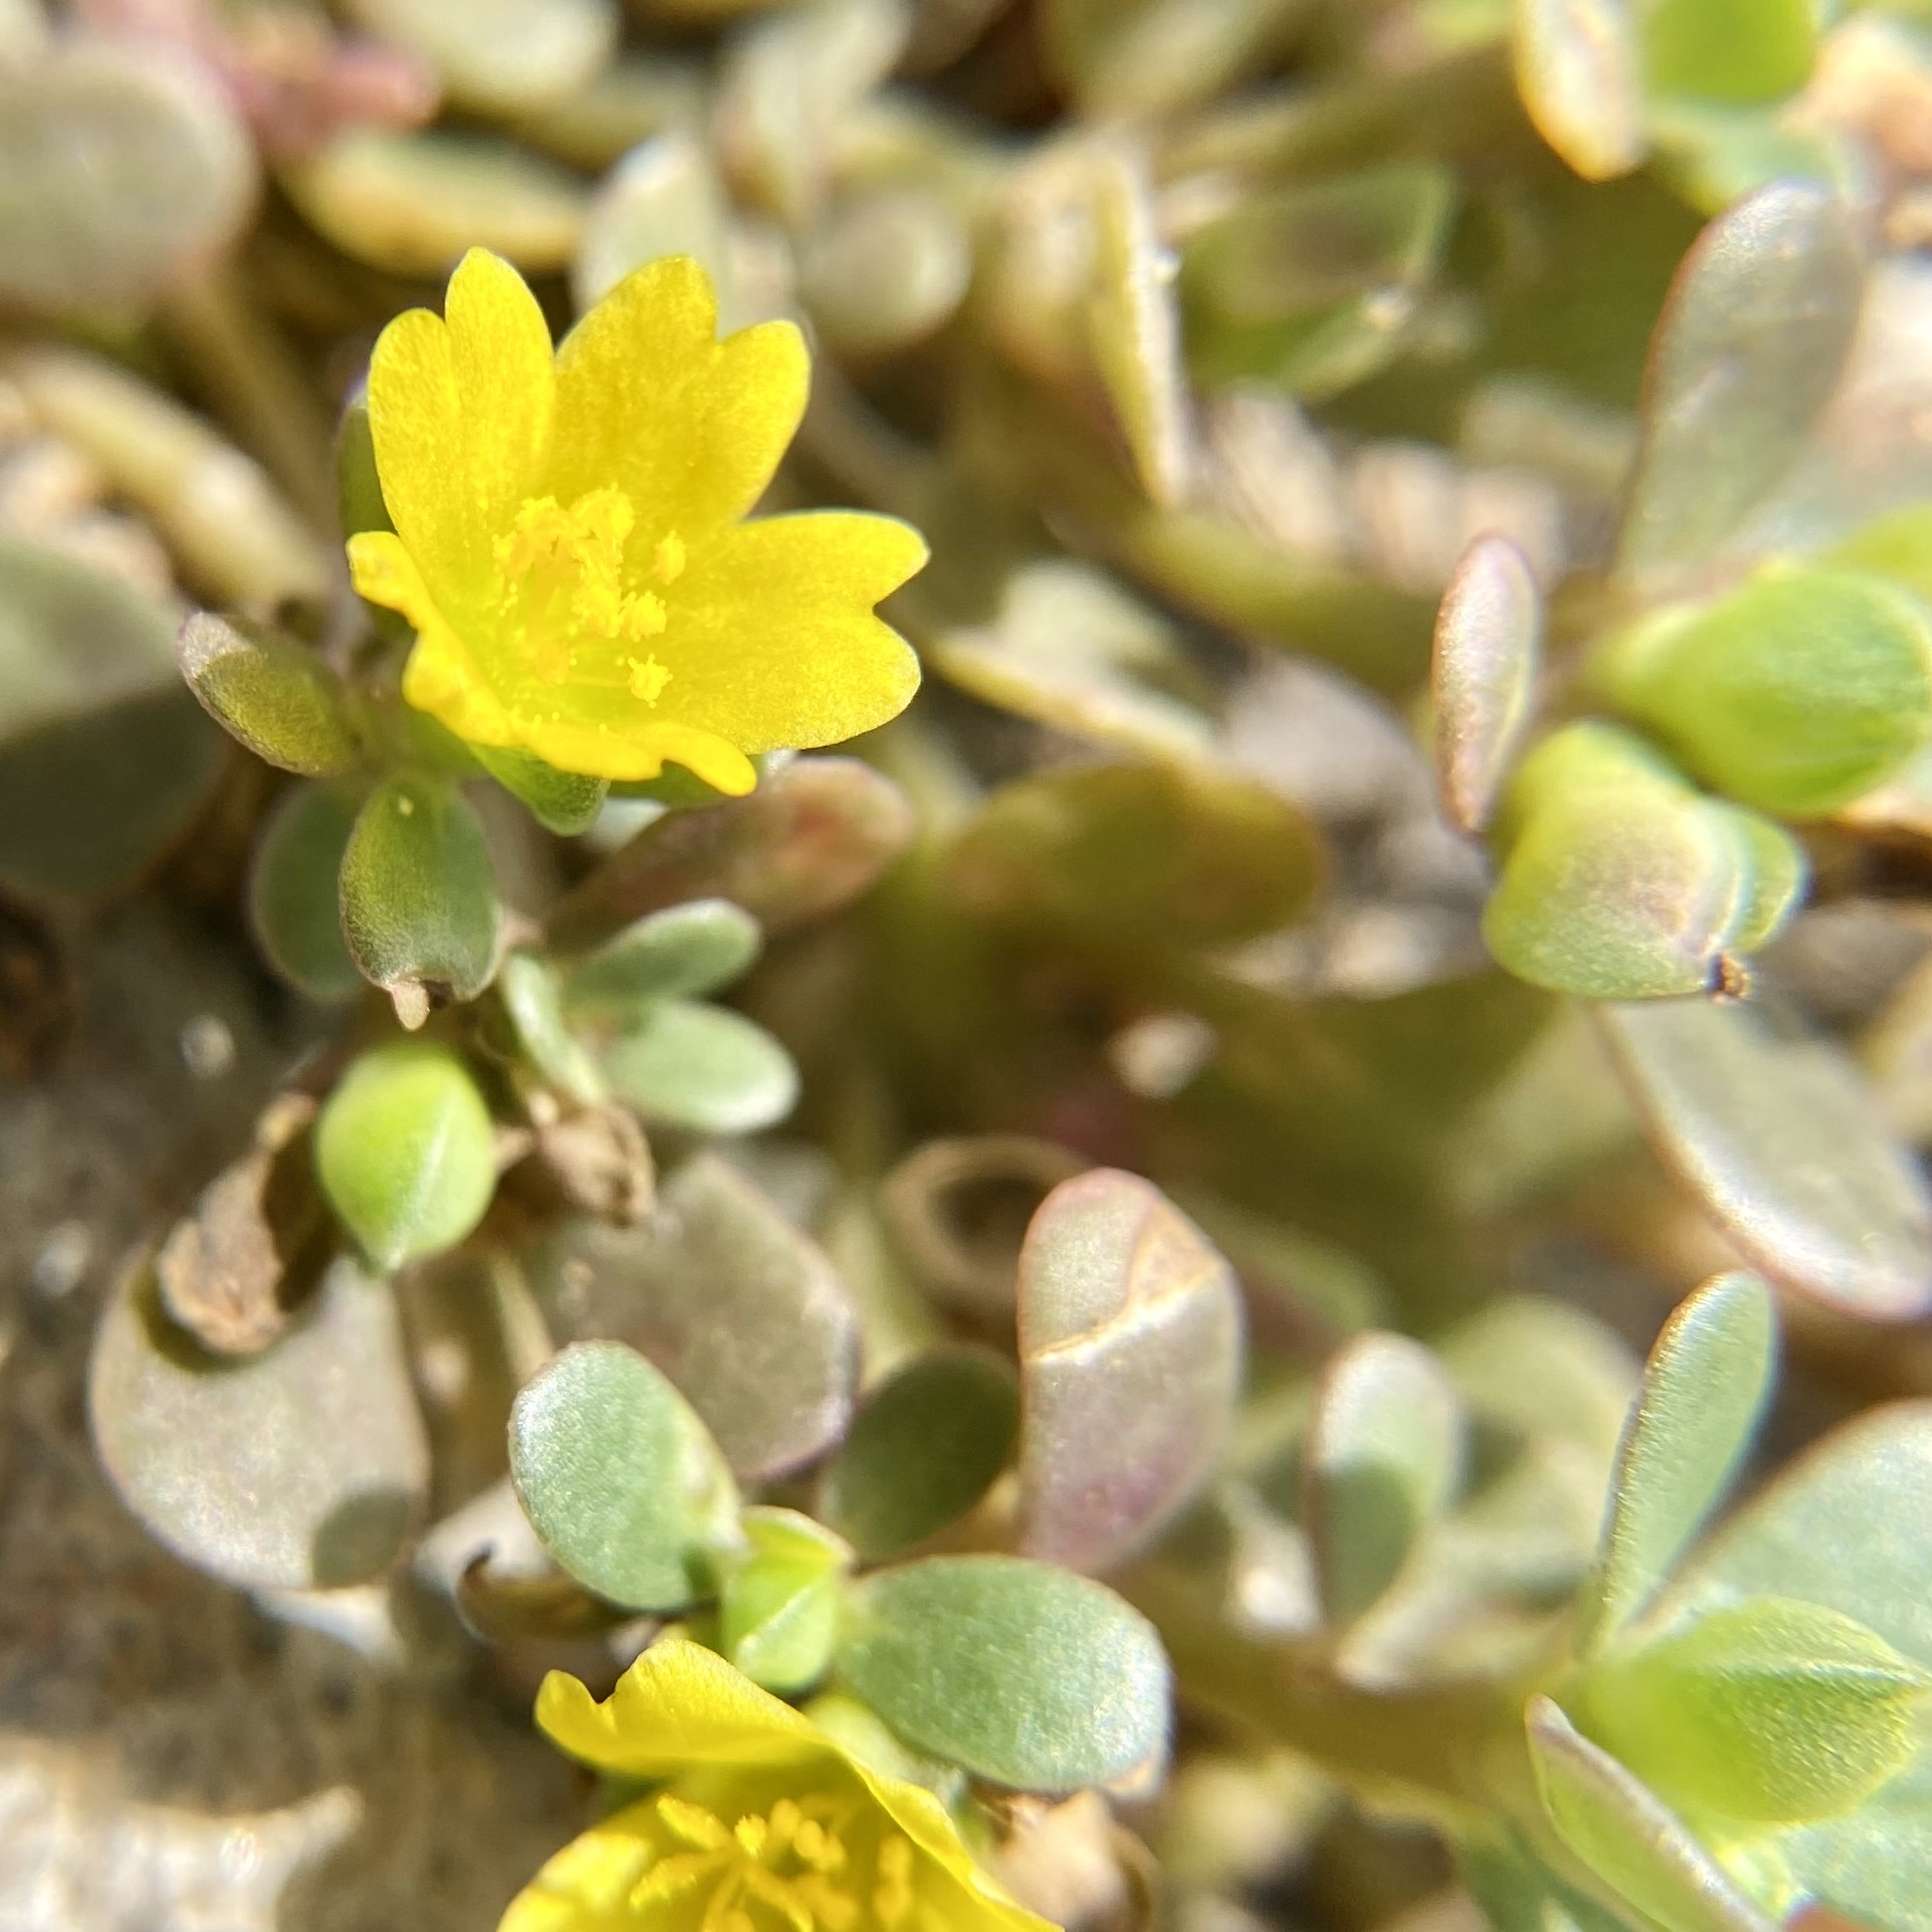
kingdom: Plantae
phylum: Tracheophyta
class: Magnoliopsida
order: Caryophyllales
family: Portulacaceae
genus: Portulaca
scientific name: Portulaca oleracea
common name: Common purslane
